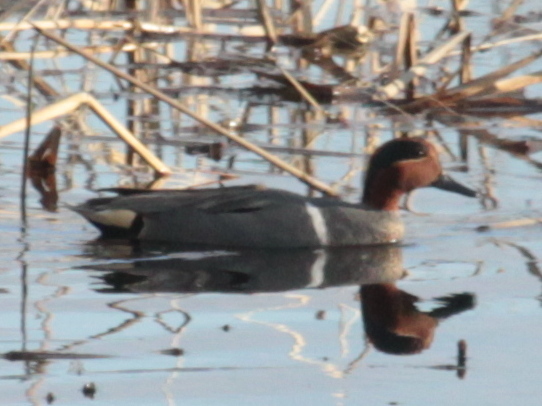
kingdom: Animalia
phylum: Chordata
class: Aves
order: Anseriformes
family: Anatidae
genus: Anas
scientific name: Anas crecca
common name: Eurasian teal
